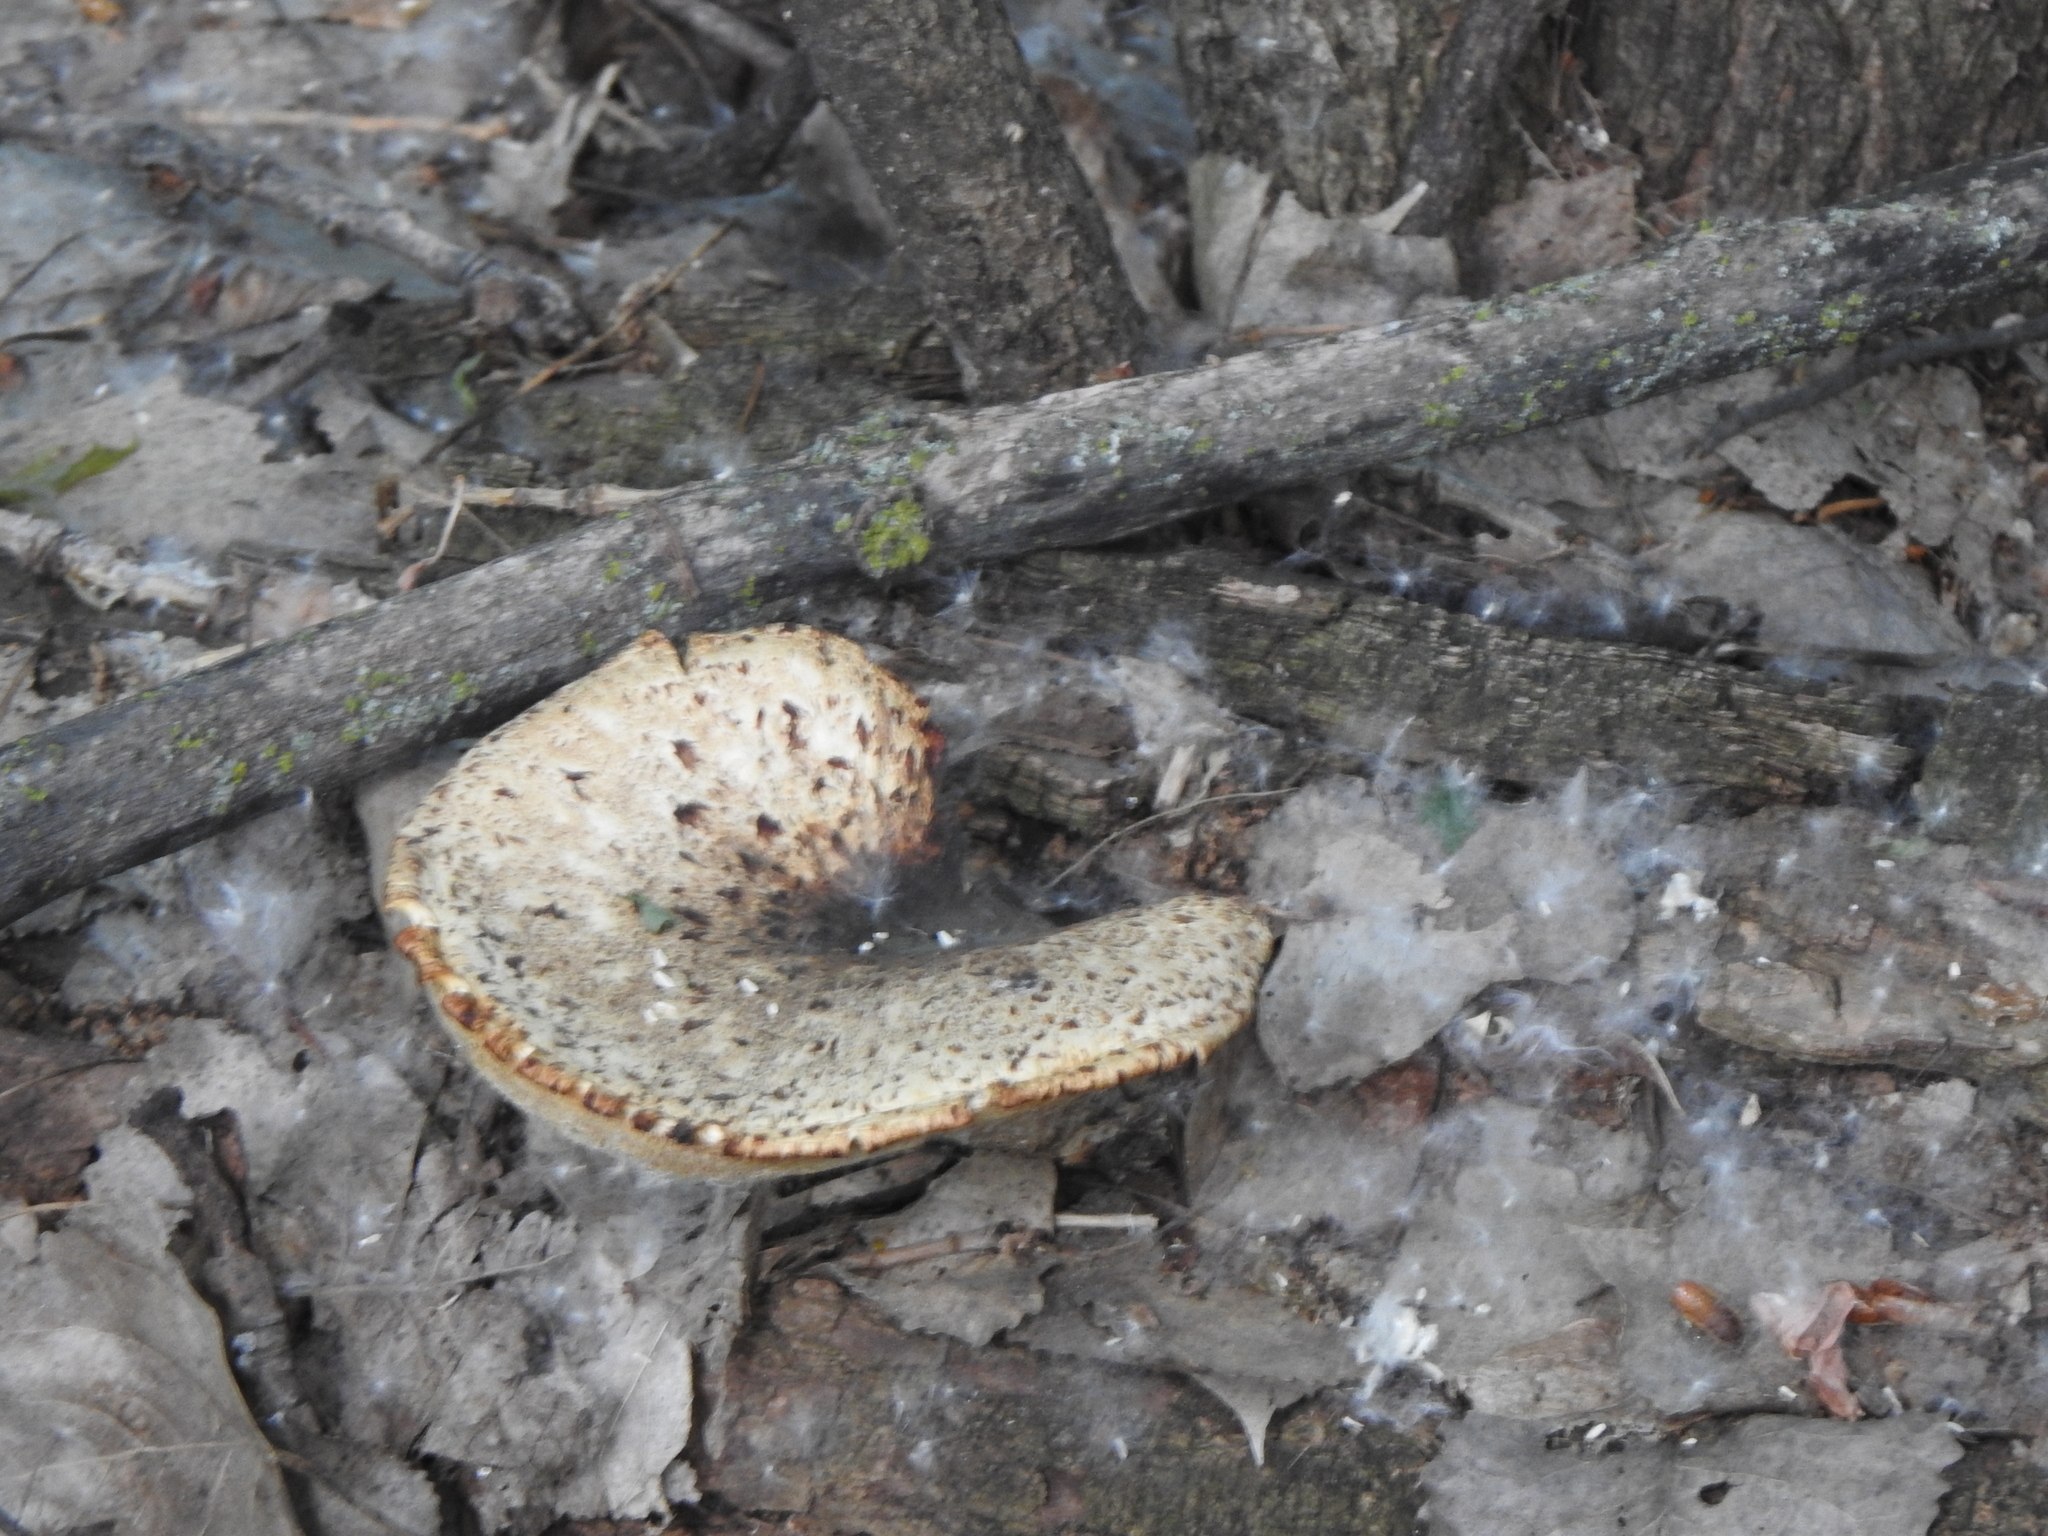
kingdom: Fungi
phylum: Basidiomycota
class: Agaricomycetes
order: Polyporales
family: Polyporaceae
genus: Cerioporus
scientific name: Cerioporus squamosus
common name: Dryad's saddle
